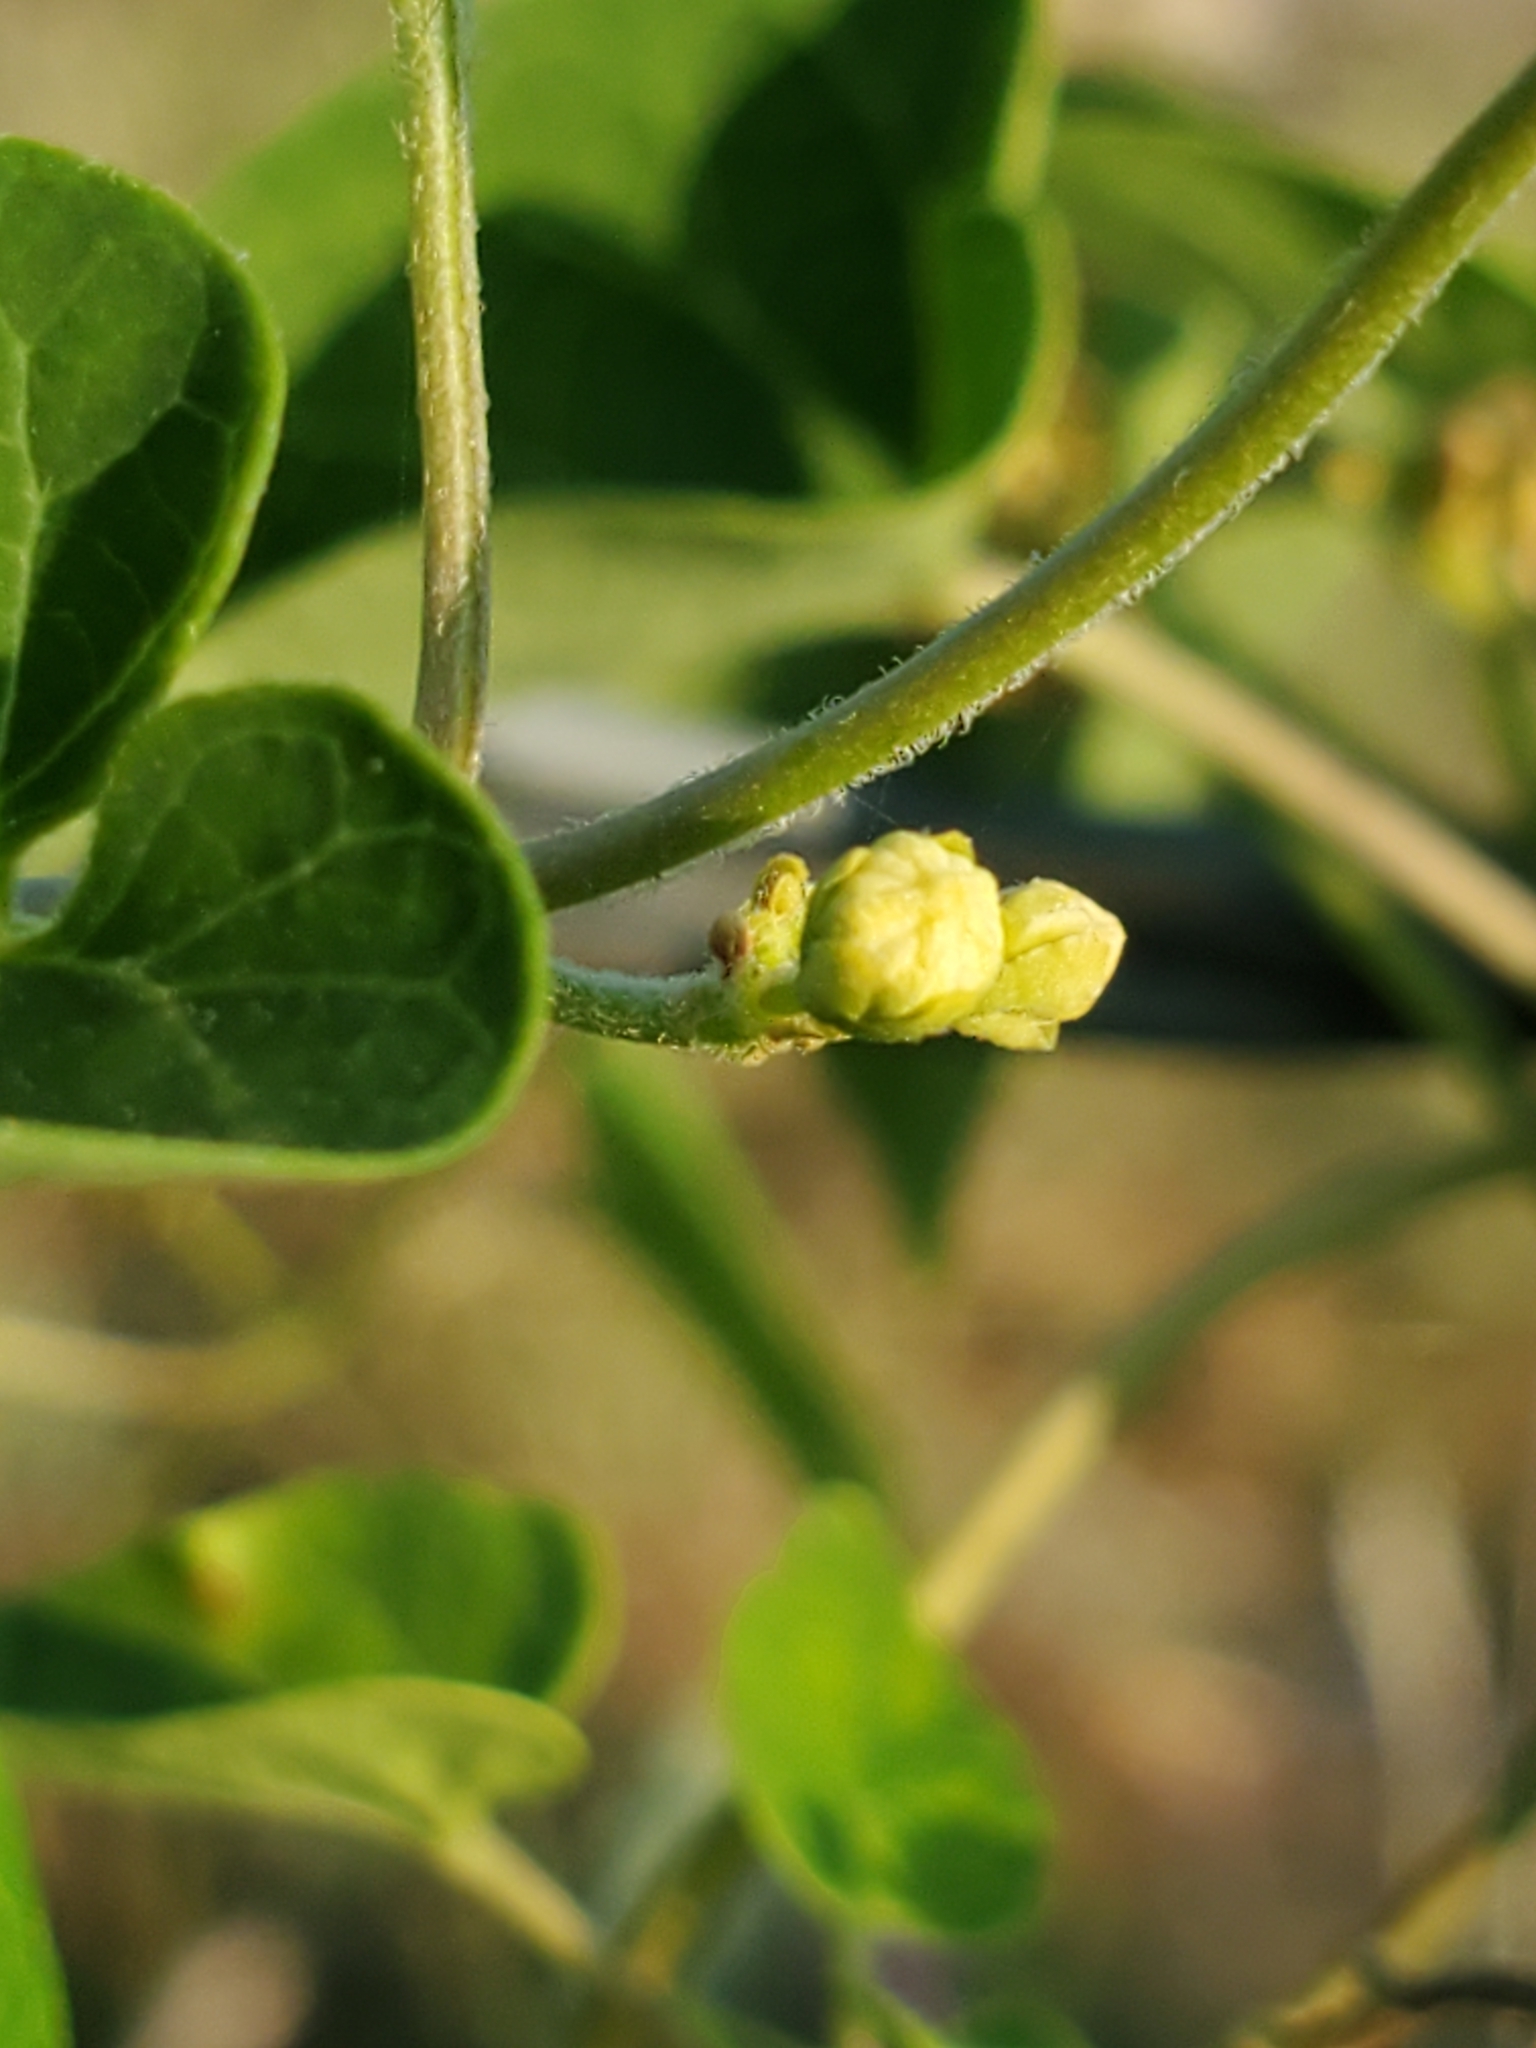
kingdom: Plantae
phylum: Tracheophyta
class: Magnoliopsida
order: Gentianales
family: Apocynaceae
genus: Cynanchum
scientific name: Cynanchum racemosum
